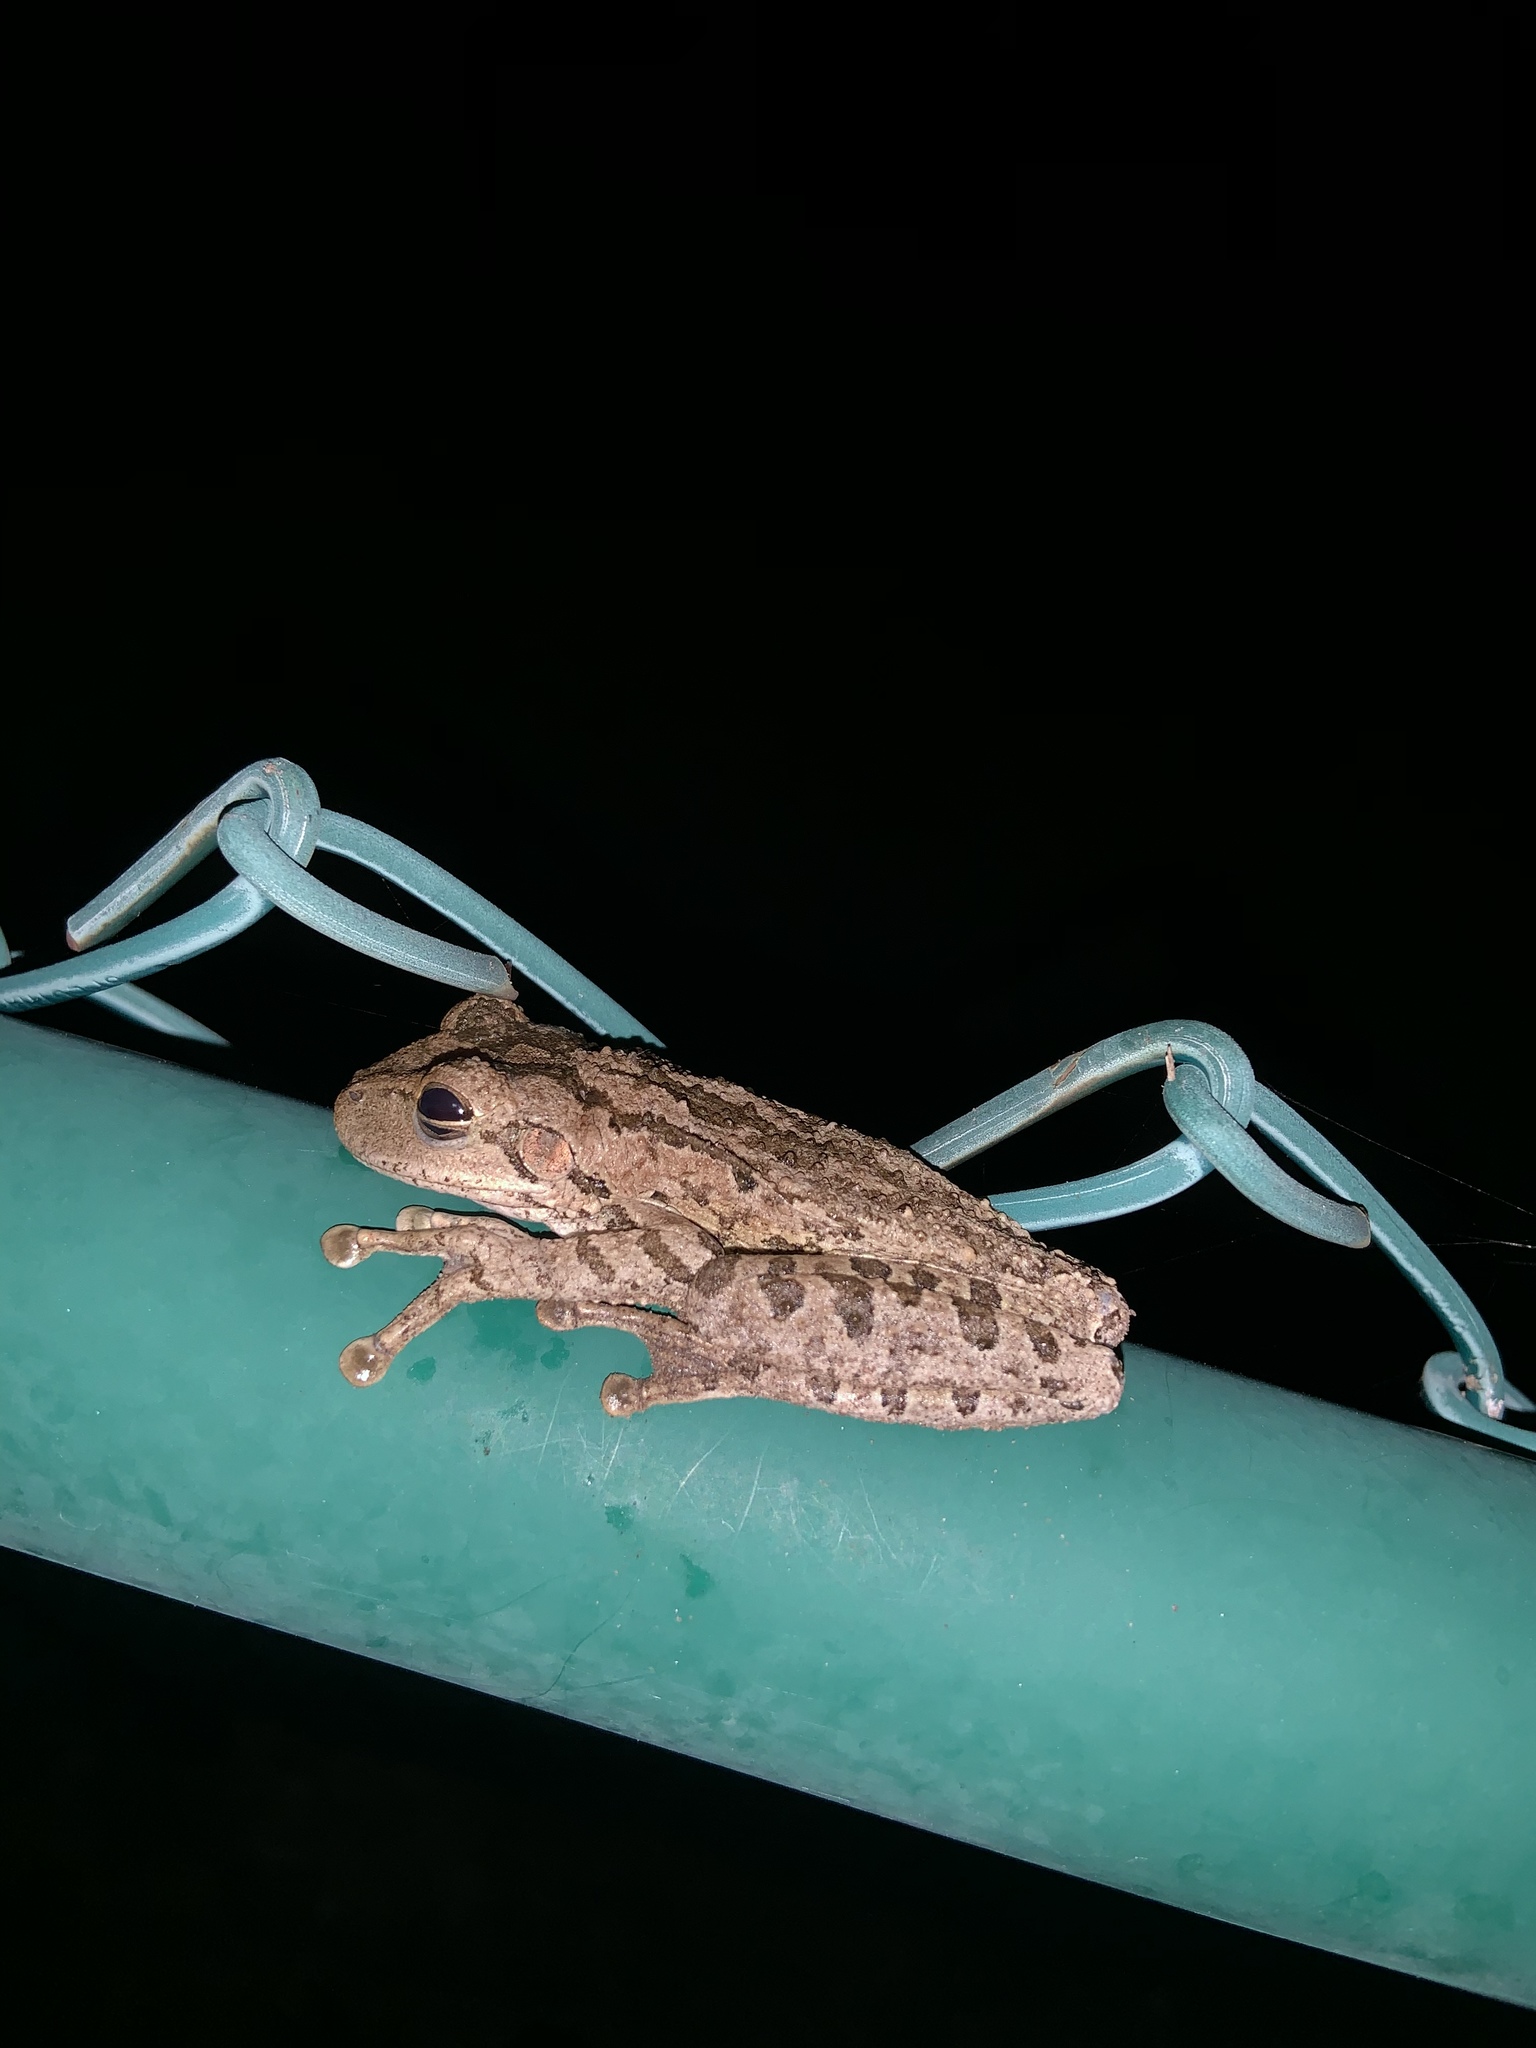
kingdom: Animalia
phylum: Chordata
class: Amphibia
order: Anura
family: Hylidae
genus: Osteopilus
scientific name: Osteopilus septentrionalis
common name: Cuban treefrog
